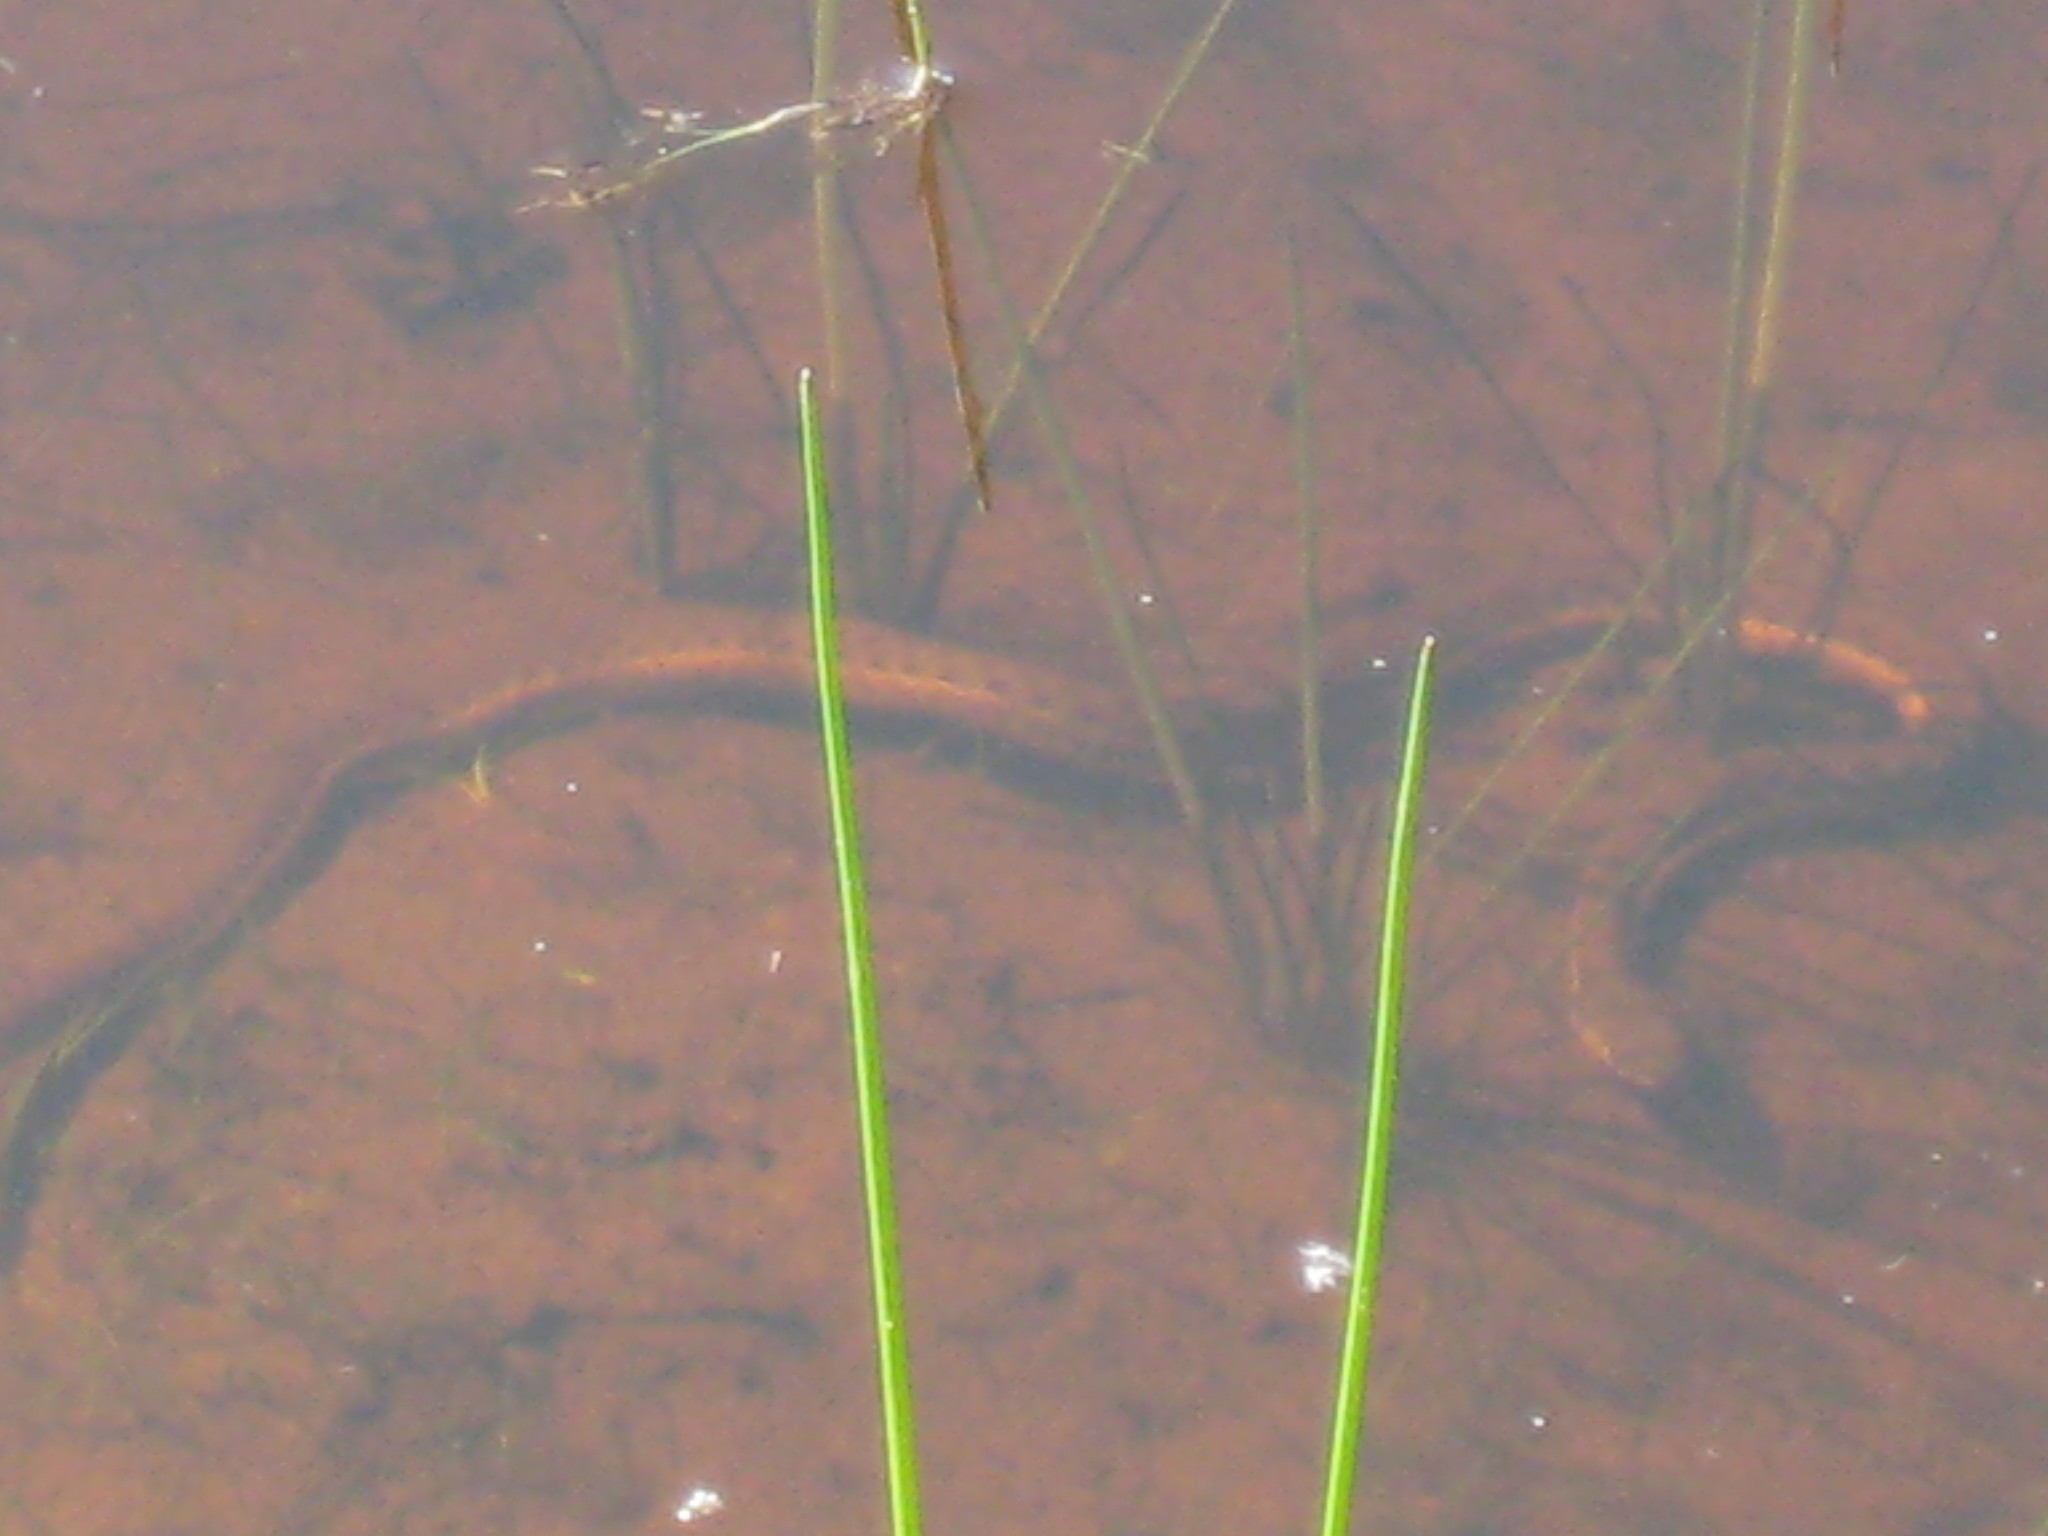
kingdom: Animalia
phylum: Chordata
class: Squamata
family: Colubridae
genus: Thamnophis
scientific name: Thamnophis hammondii
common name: Two-striped garter snake
